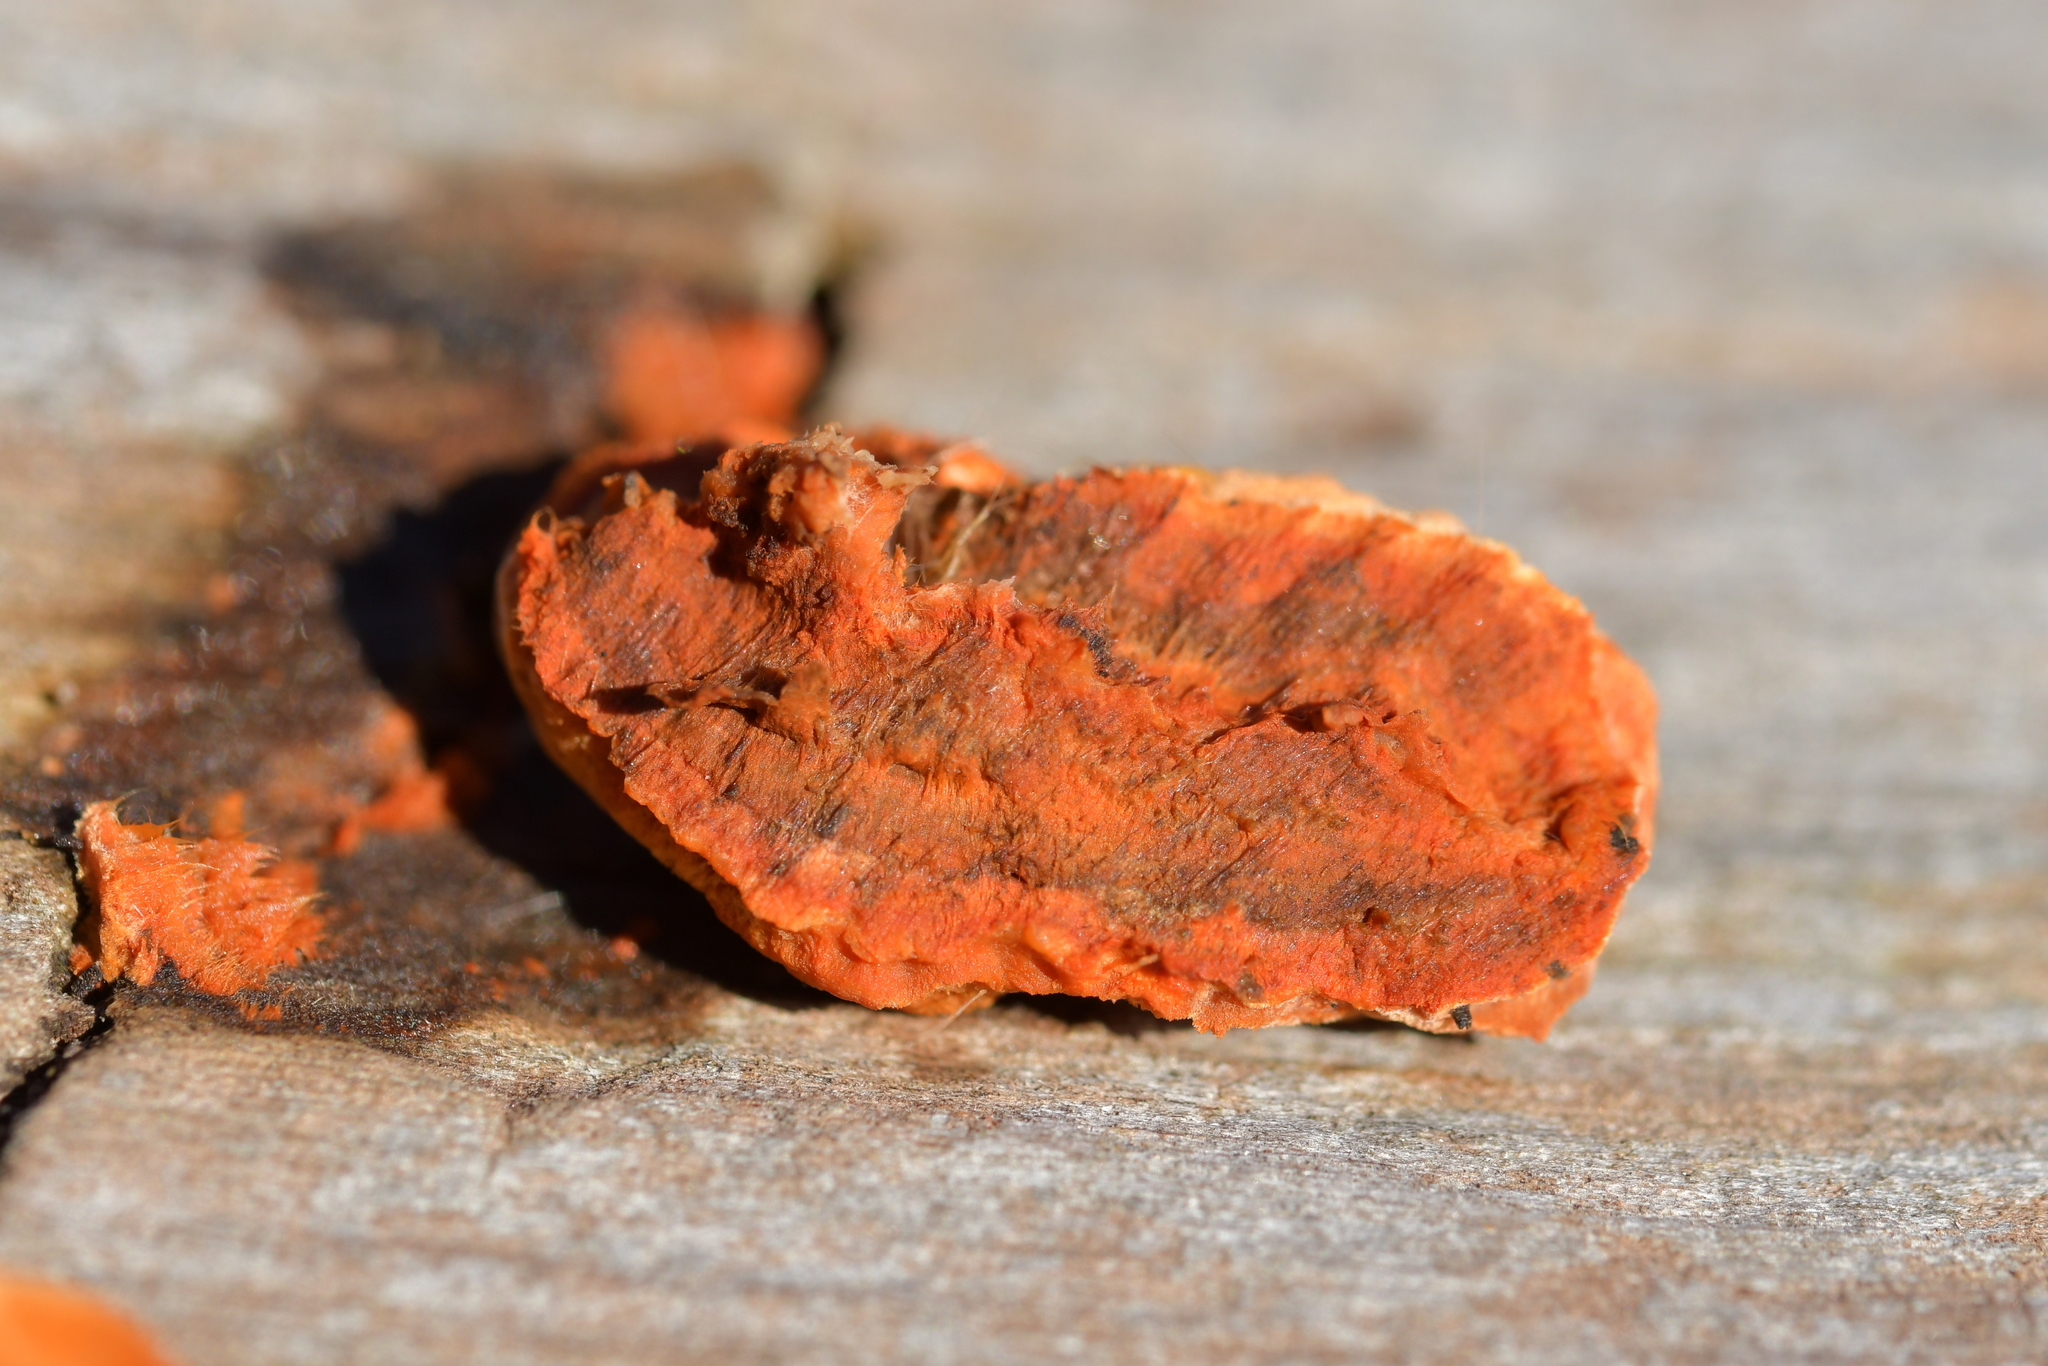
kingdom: Fungi
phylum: Basidiomycota
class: Agaricomycetes
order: Polyporales
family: Polyporaceae
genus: Trametes
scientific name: Trametes coccinea
